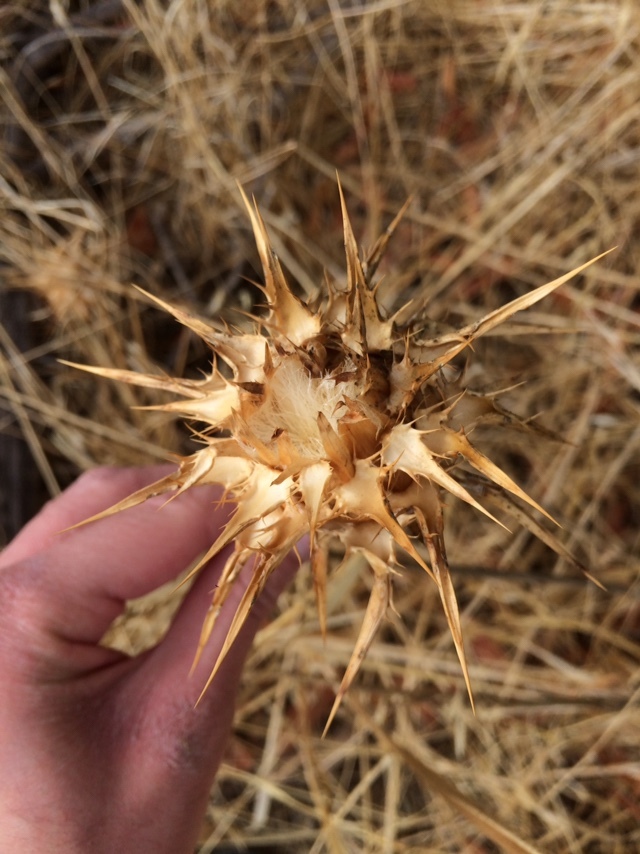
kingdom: Plantae
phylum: Tracheophyta
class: Magnoliopsida
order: Asterales
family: Asteraceae
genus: Silybum
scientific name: Silybum marianum
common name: Milk thistle
